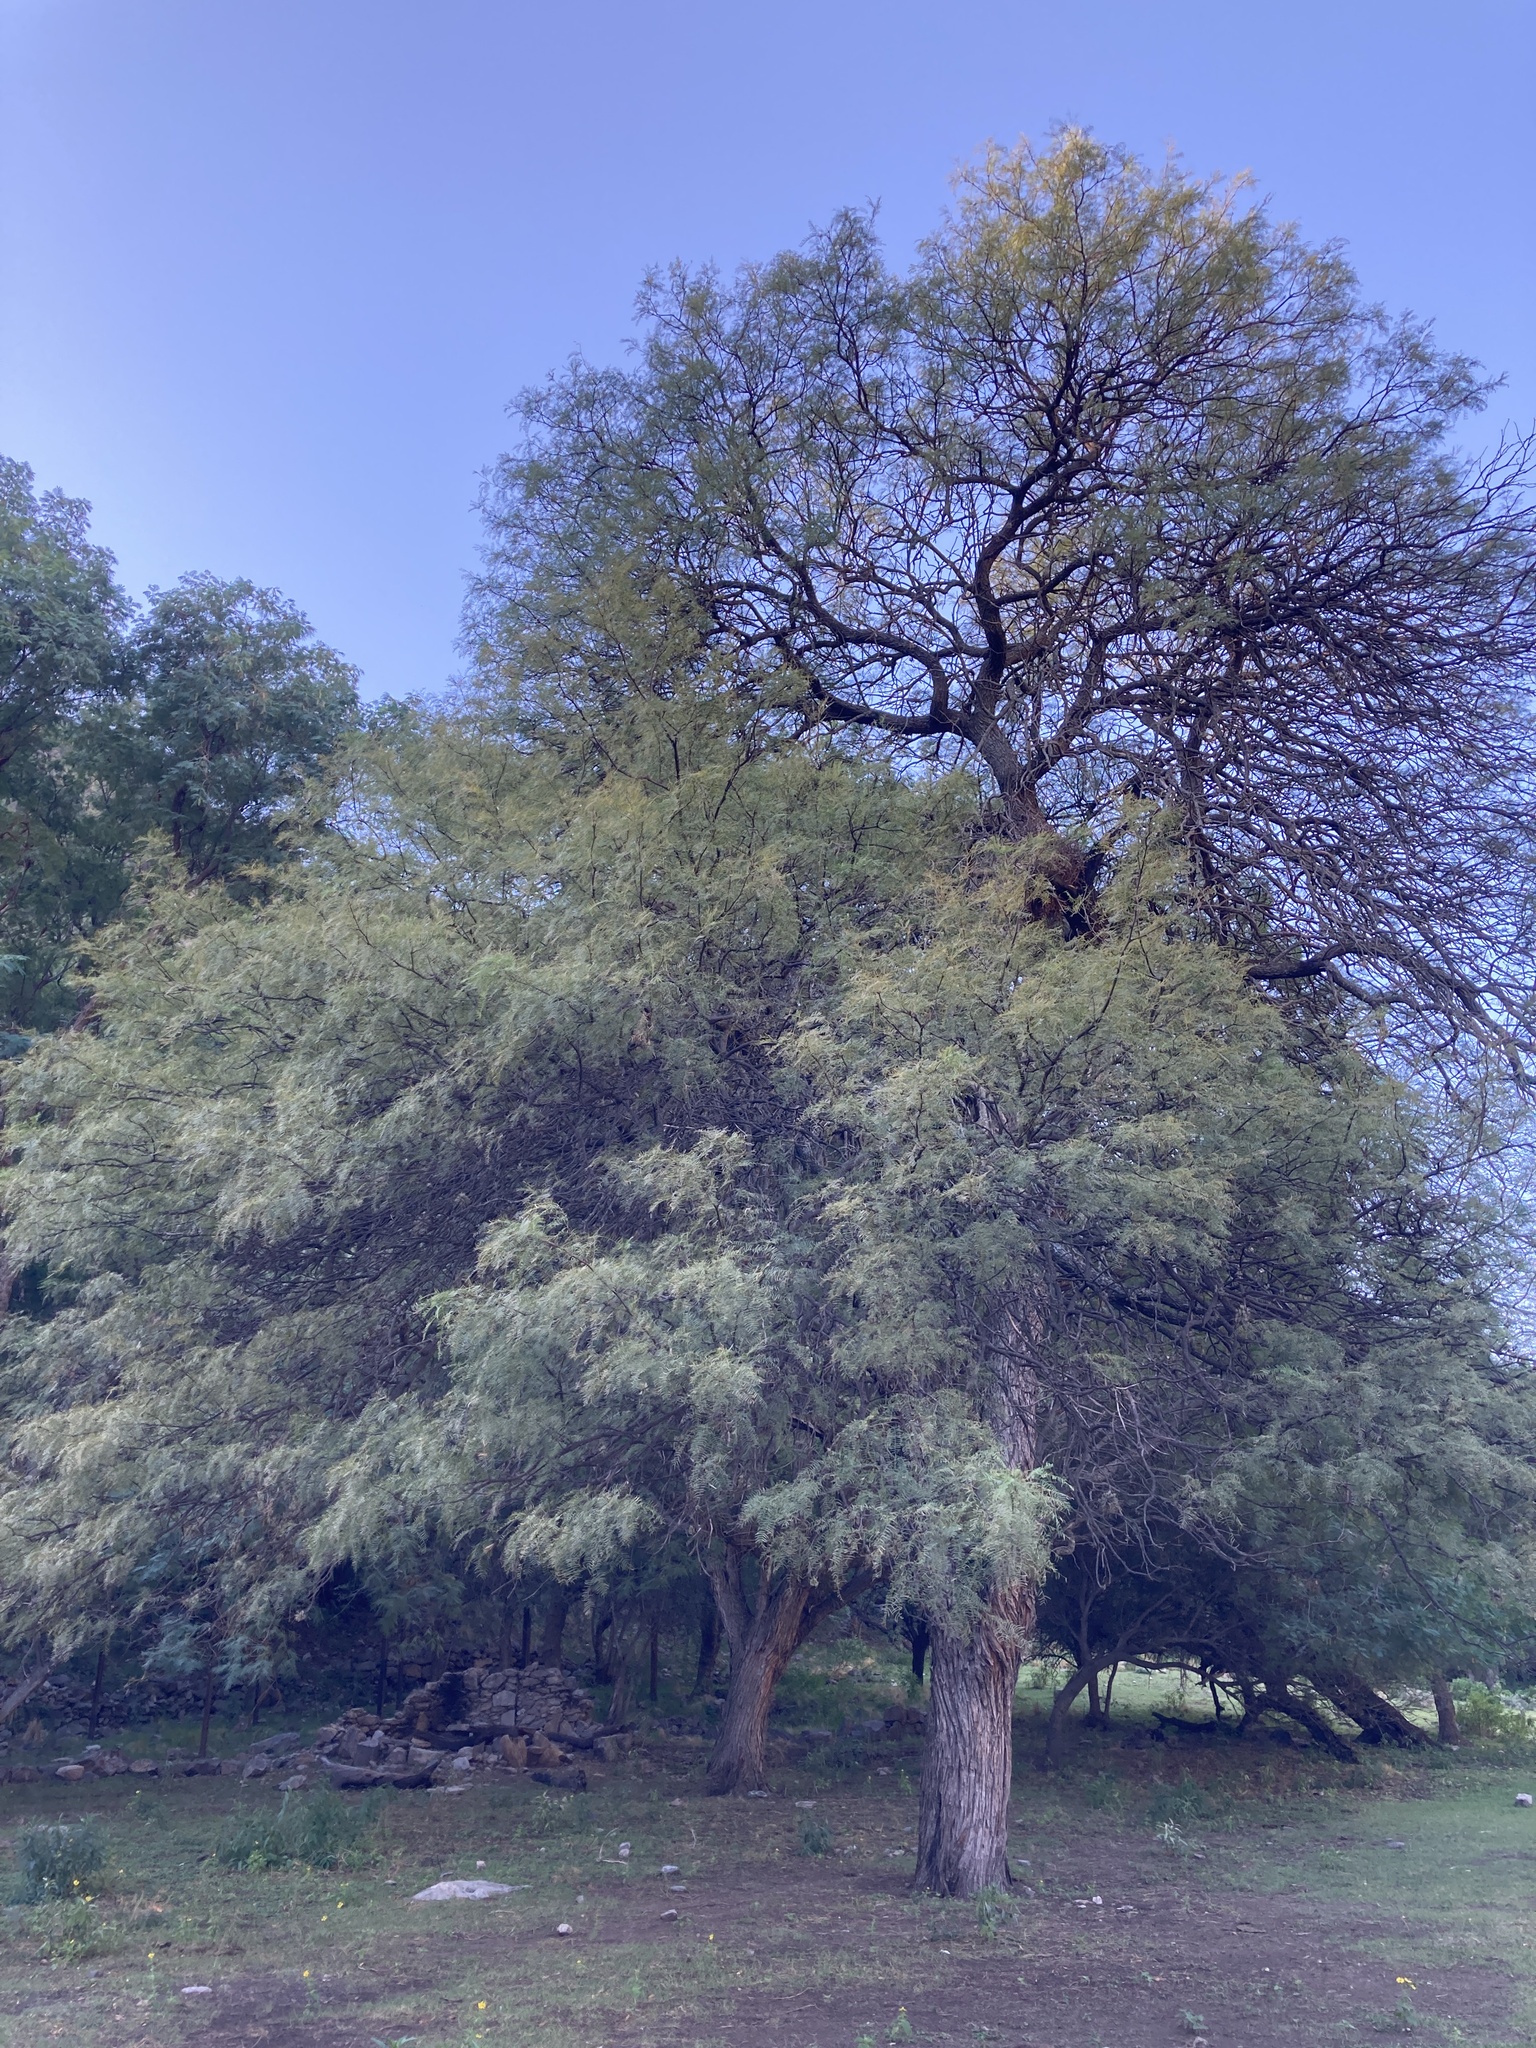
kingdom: Plantae
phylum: Tracheophyta
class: Magnoliopsida
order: Fabales
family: Fabaceae
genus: Prosopis
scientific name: Prosopis chilensis
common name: Chilean algarrobo
